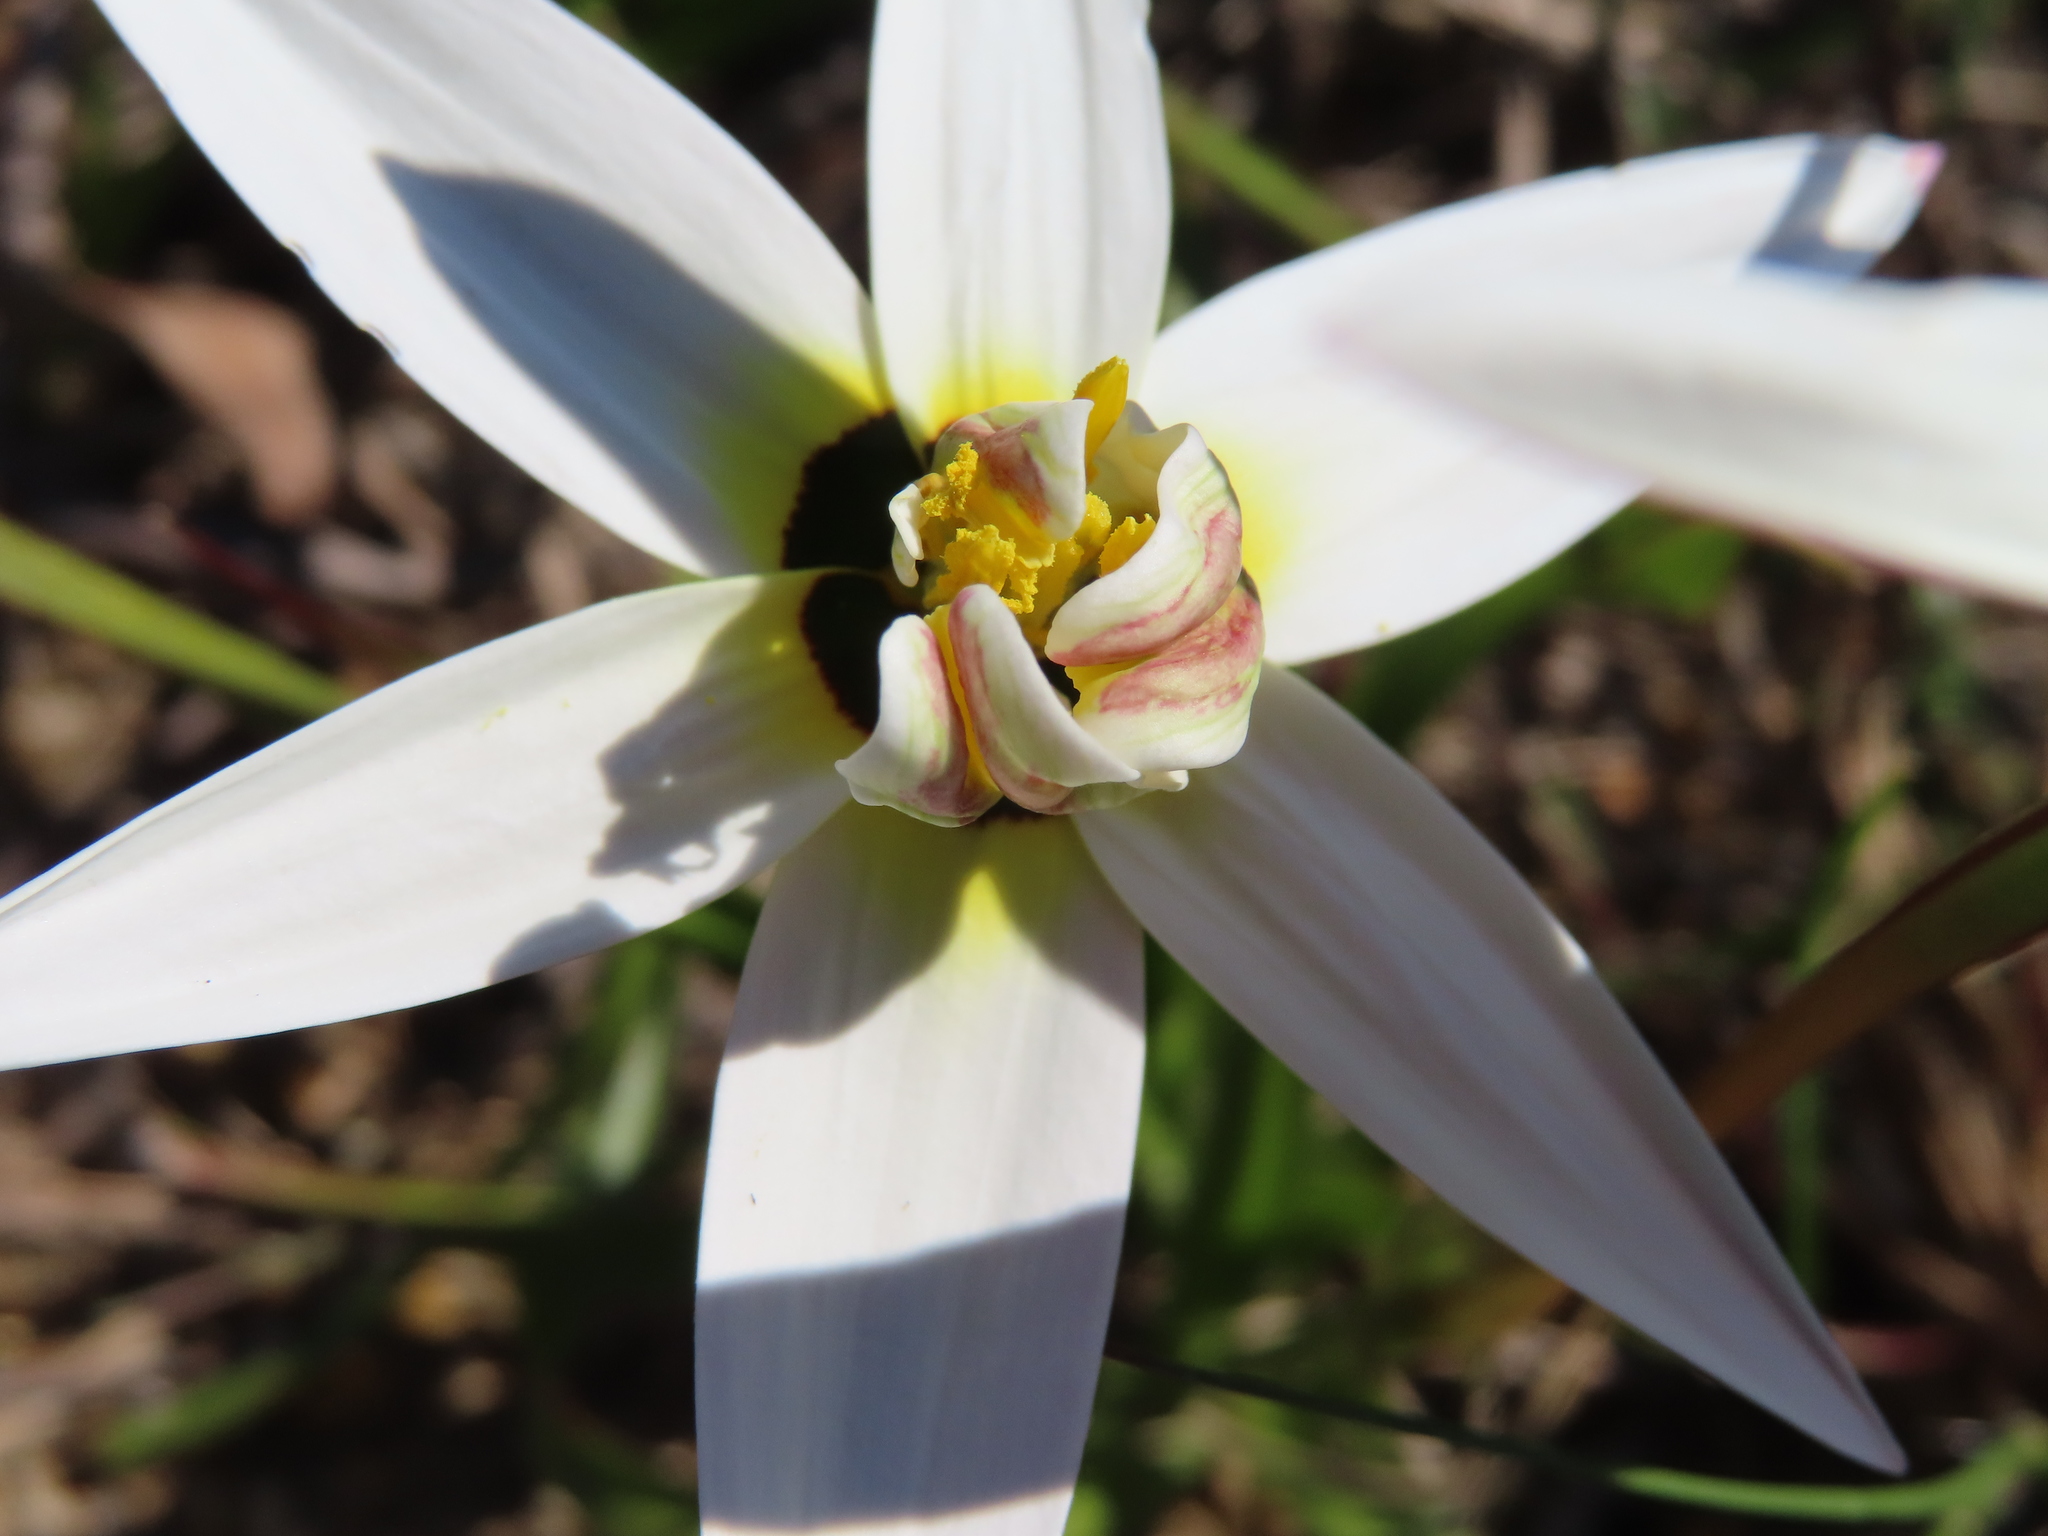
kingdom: Plantae
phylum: Tracheophyta
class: Liliopsida
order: Asparagales
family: Hypoxidaceae
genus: Pauridia
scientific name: Pauridia capensis
